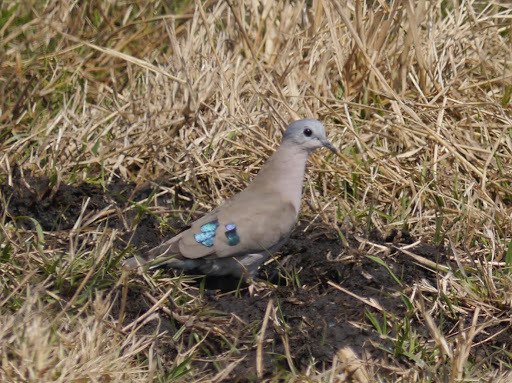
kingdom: Animalia
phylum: Chordata
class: Aves
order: Columbiformes
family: Columbidae
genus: Turtur
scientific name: Turtur chalcospilos
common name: Emerald-spotted wood dove
